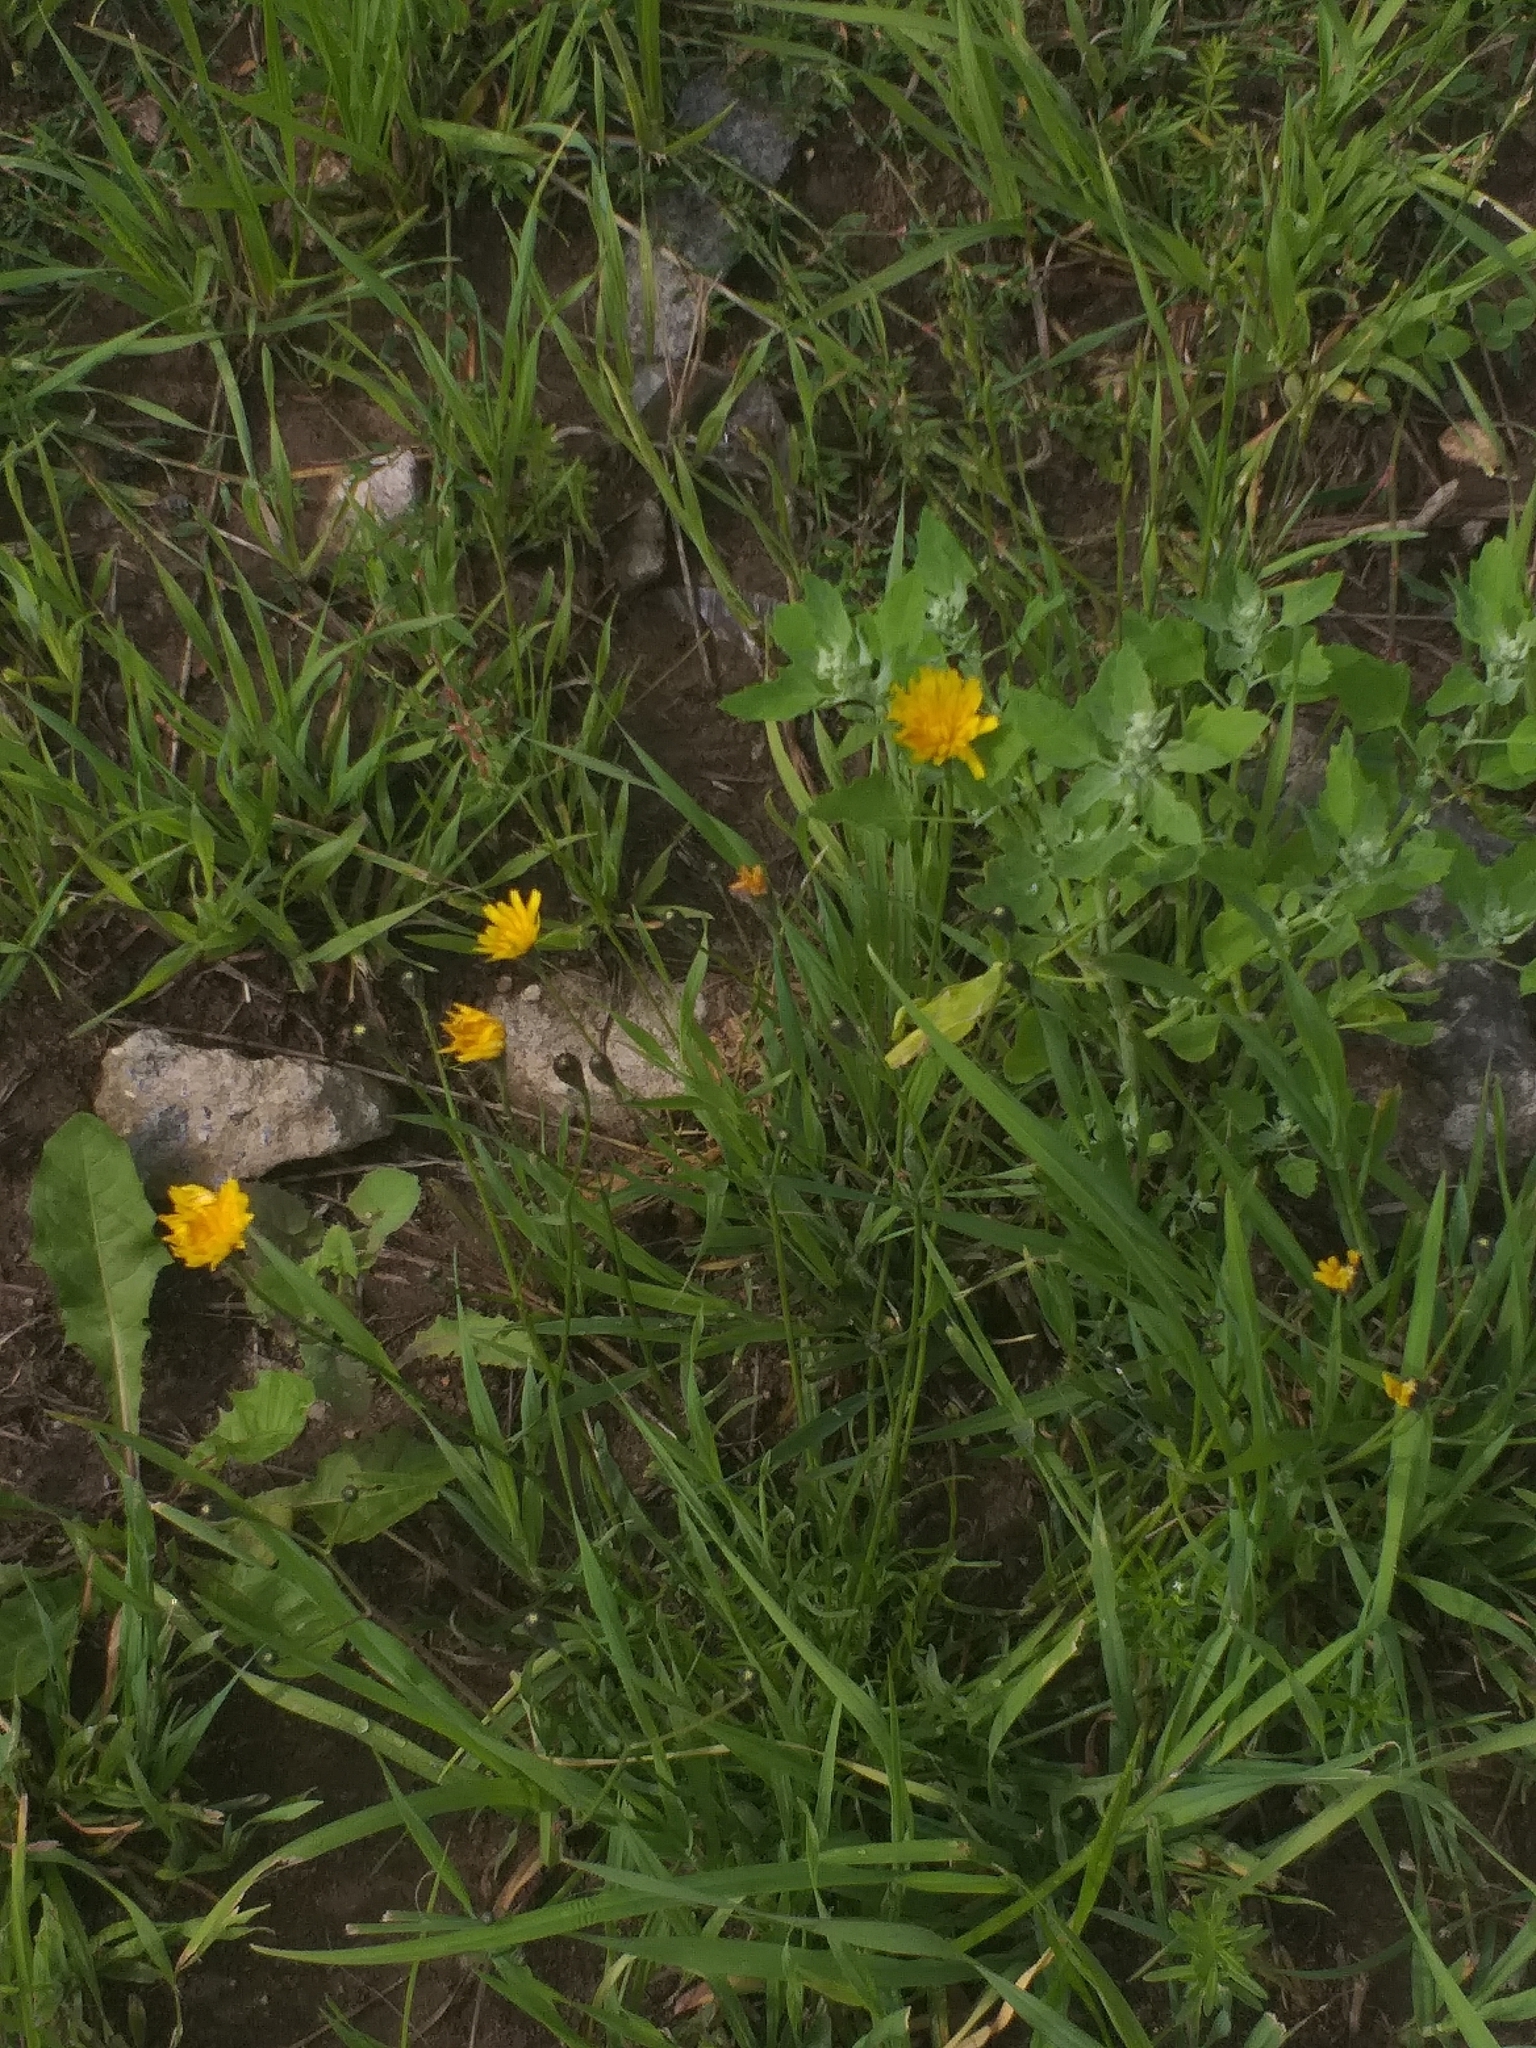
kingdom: Plantae
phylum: Tracheophyta
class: Magnoliopsida
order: Asterales
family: Asteraceae
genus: Scorzoneroides
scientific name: Scorzoneroides autumnalis
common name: Autumn hawkbit
